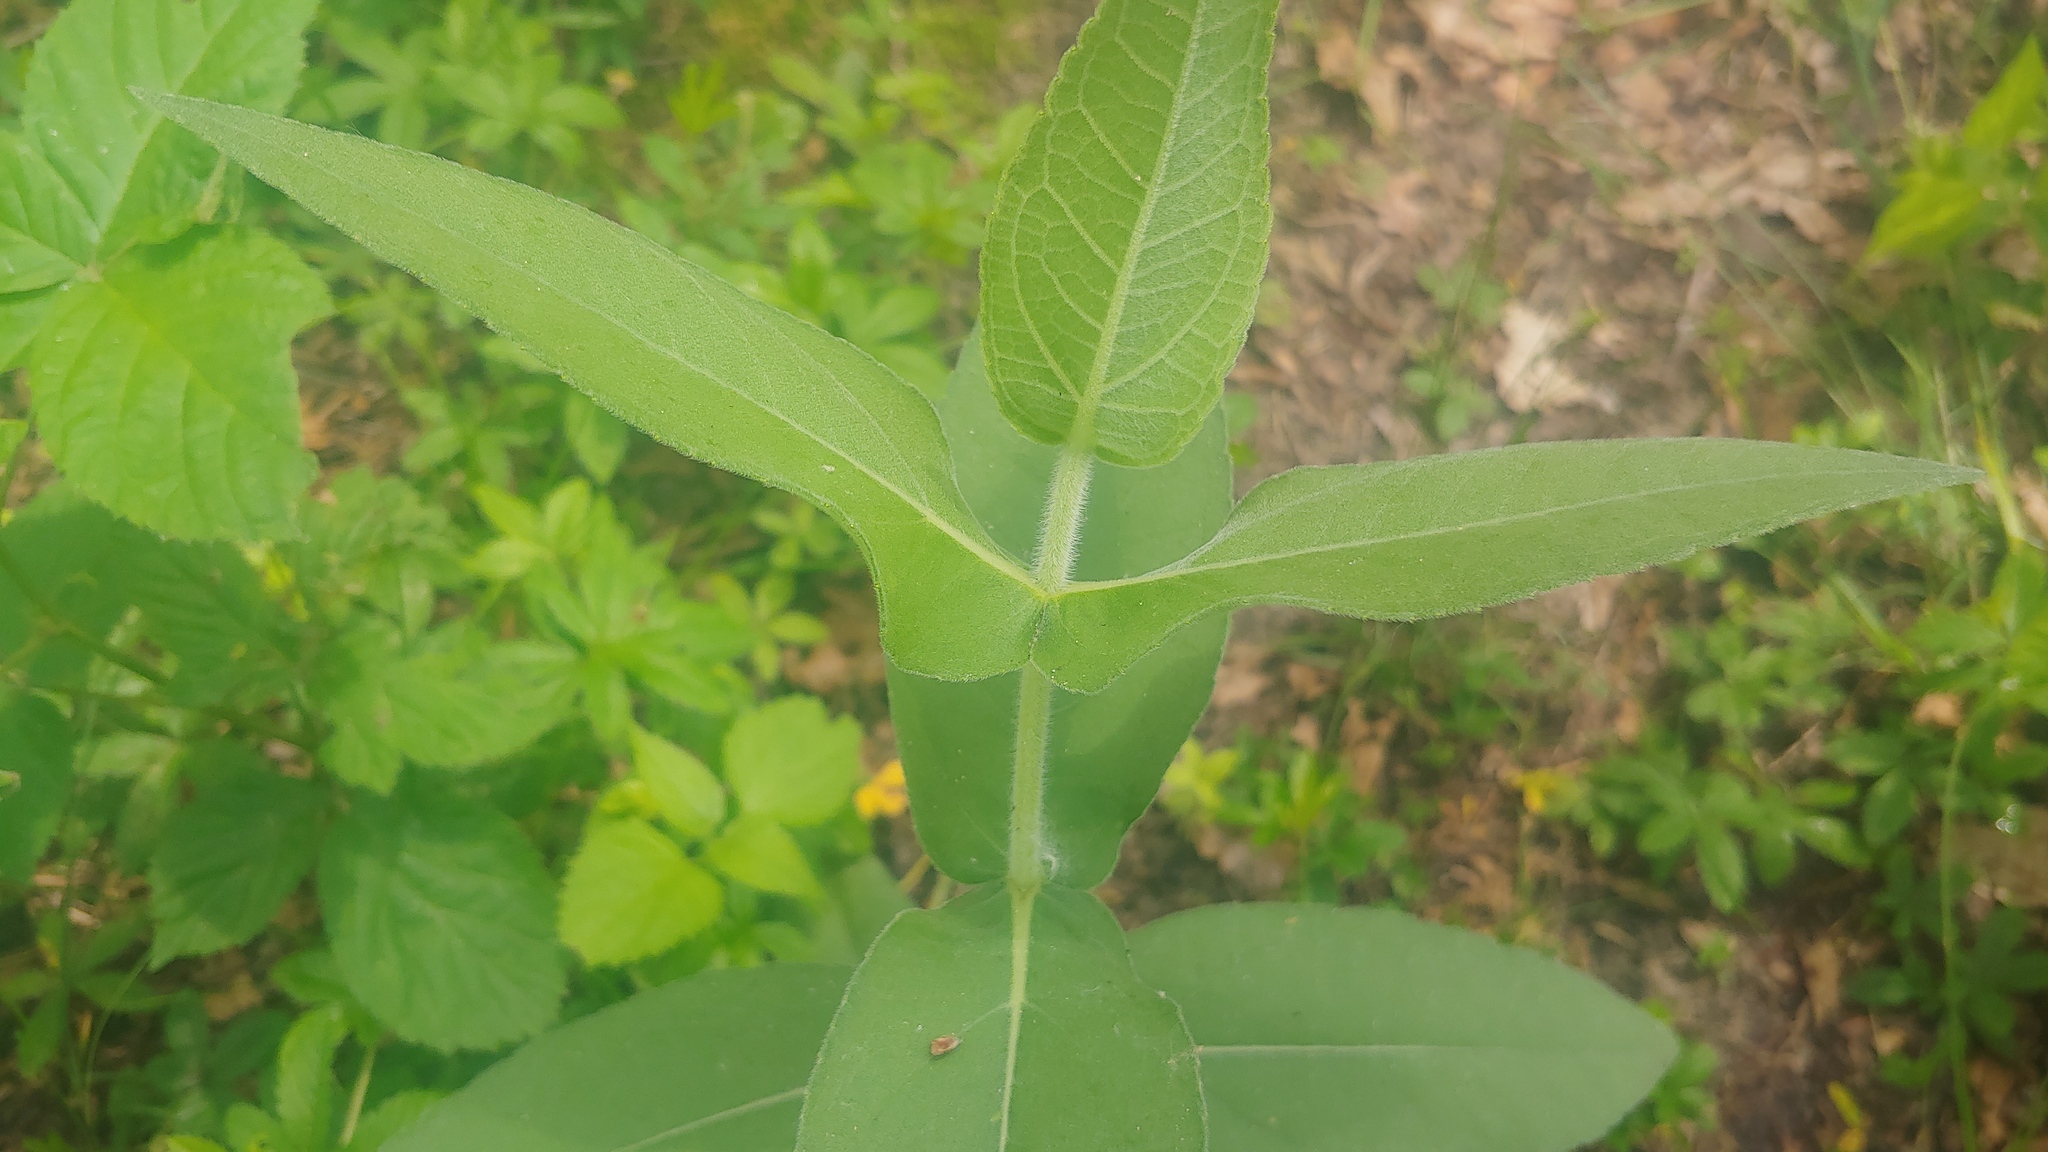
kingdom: Plantae
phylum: Tracheophyta
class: Magnoliopsida
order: Asterales
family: Asteraceae
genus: Helianthus
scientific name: Helianthus mollis
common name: Ashy sunflower
